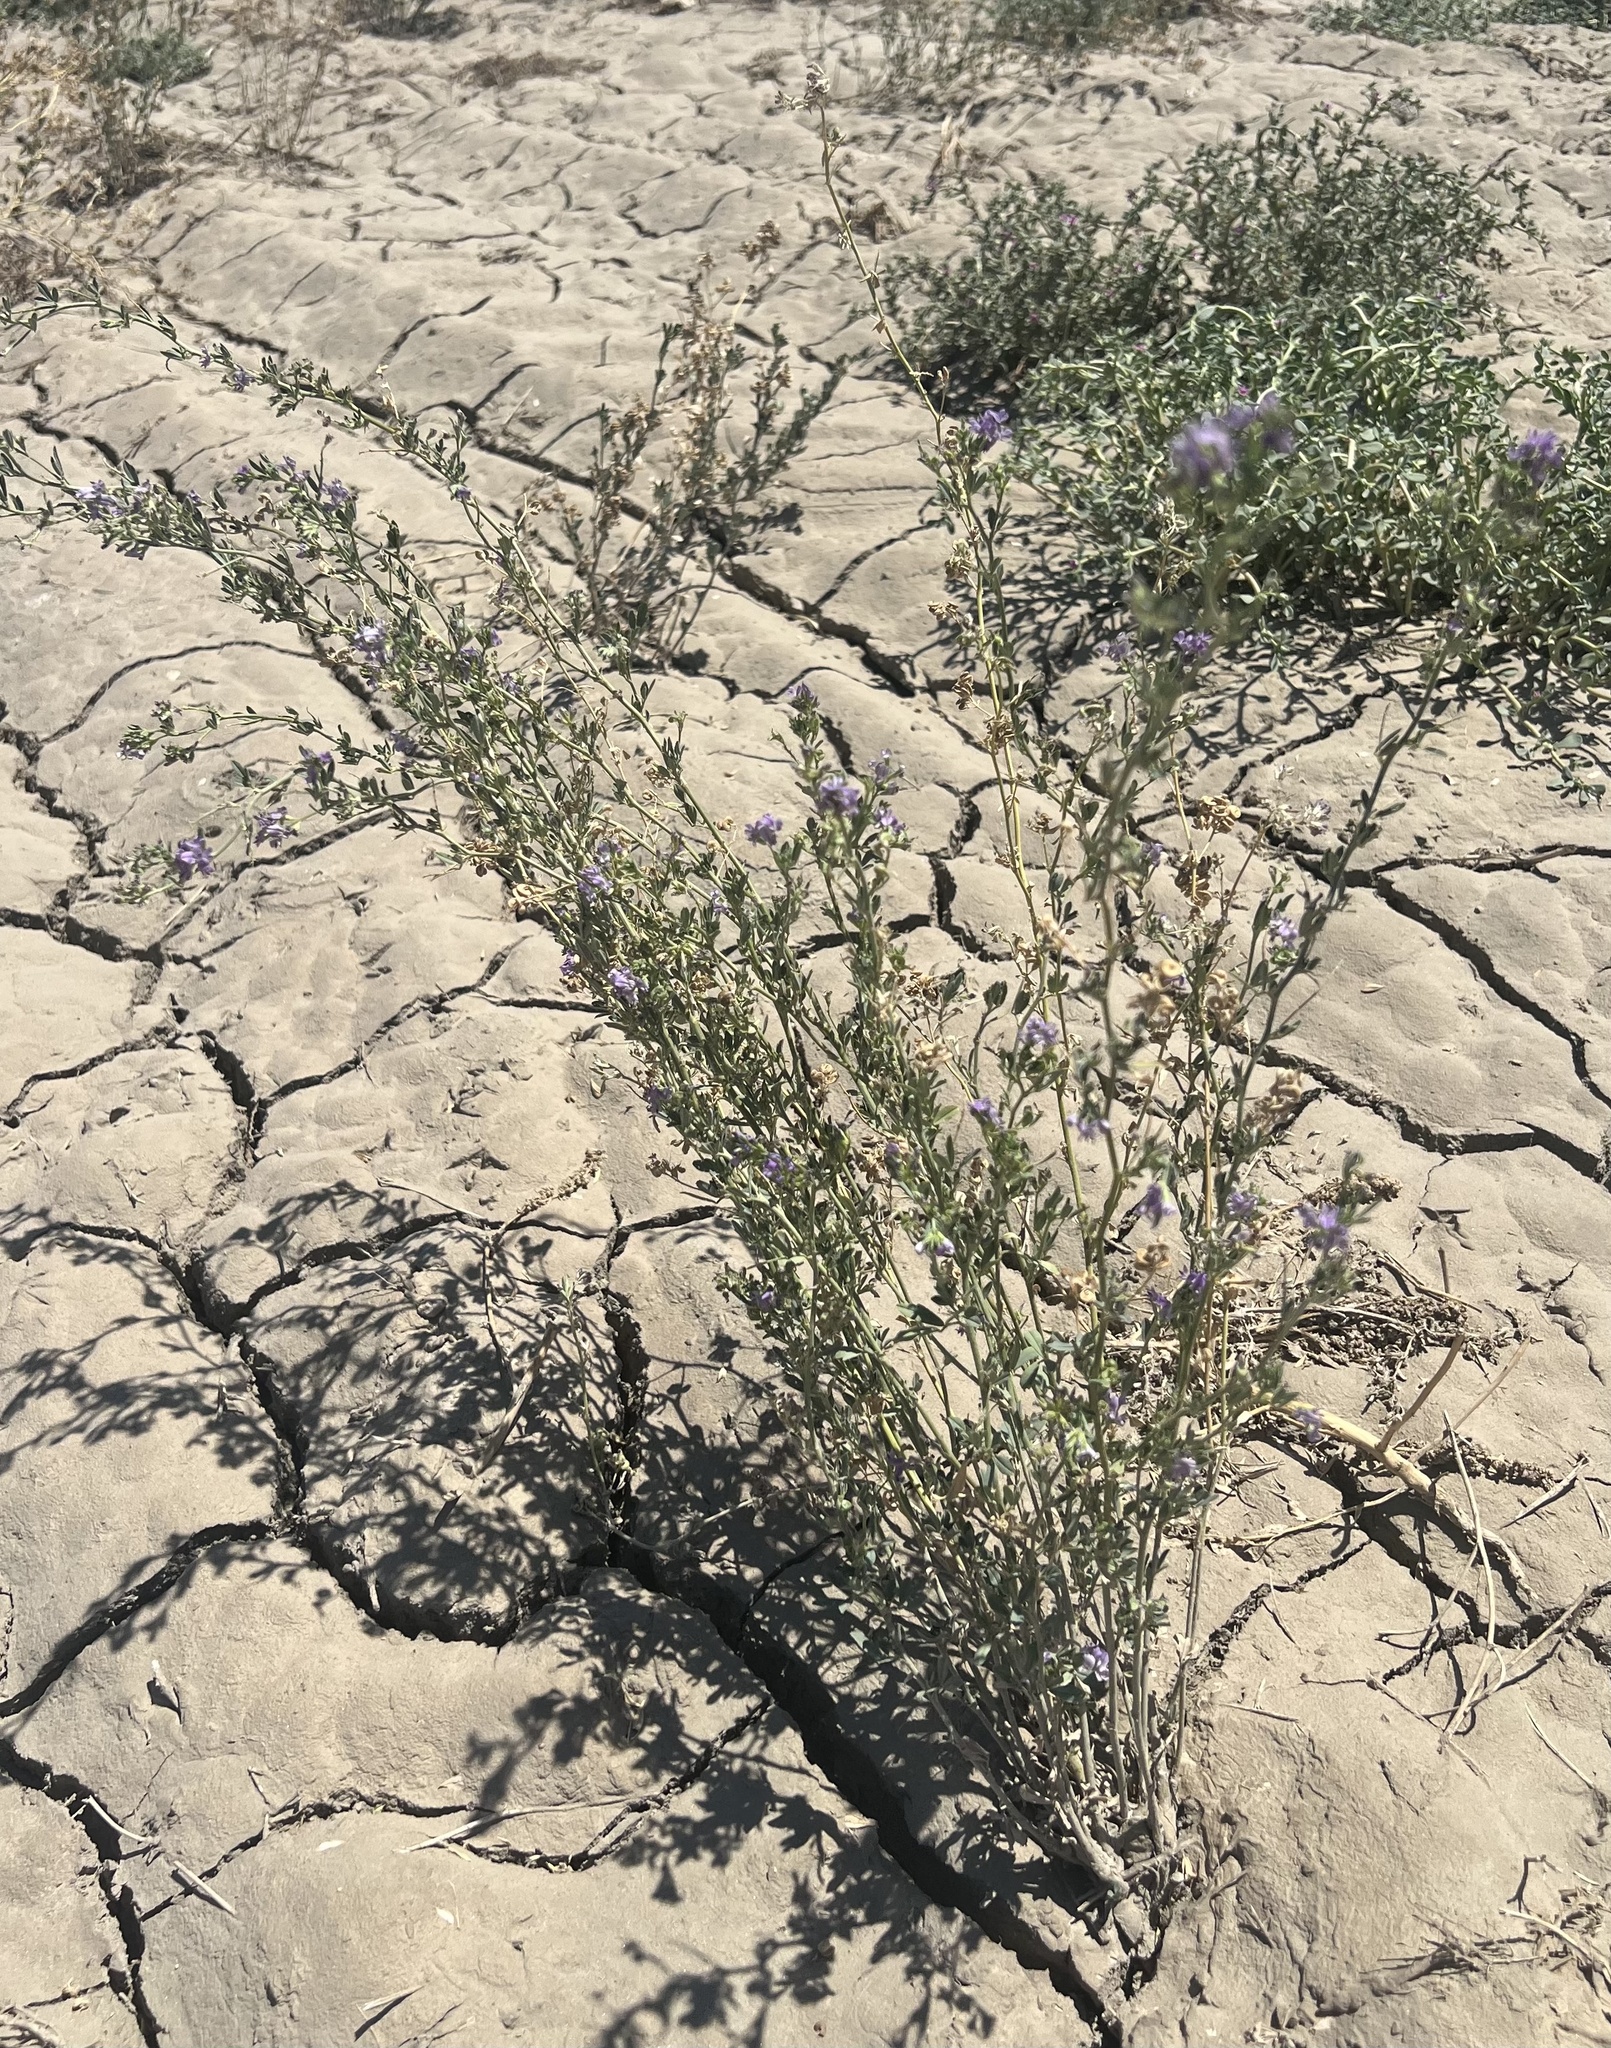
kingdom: Plantae
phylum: Tracheophyta
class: Magnoliopsida
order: Fabales
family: Fabaceae
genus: Medicago
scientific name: Medicago sativa
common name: Alfalfa
